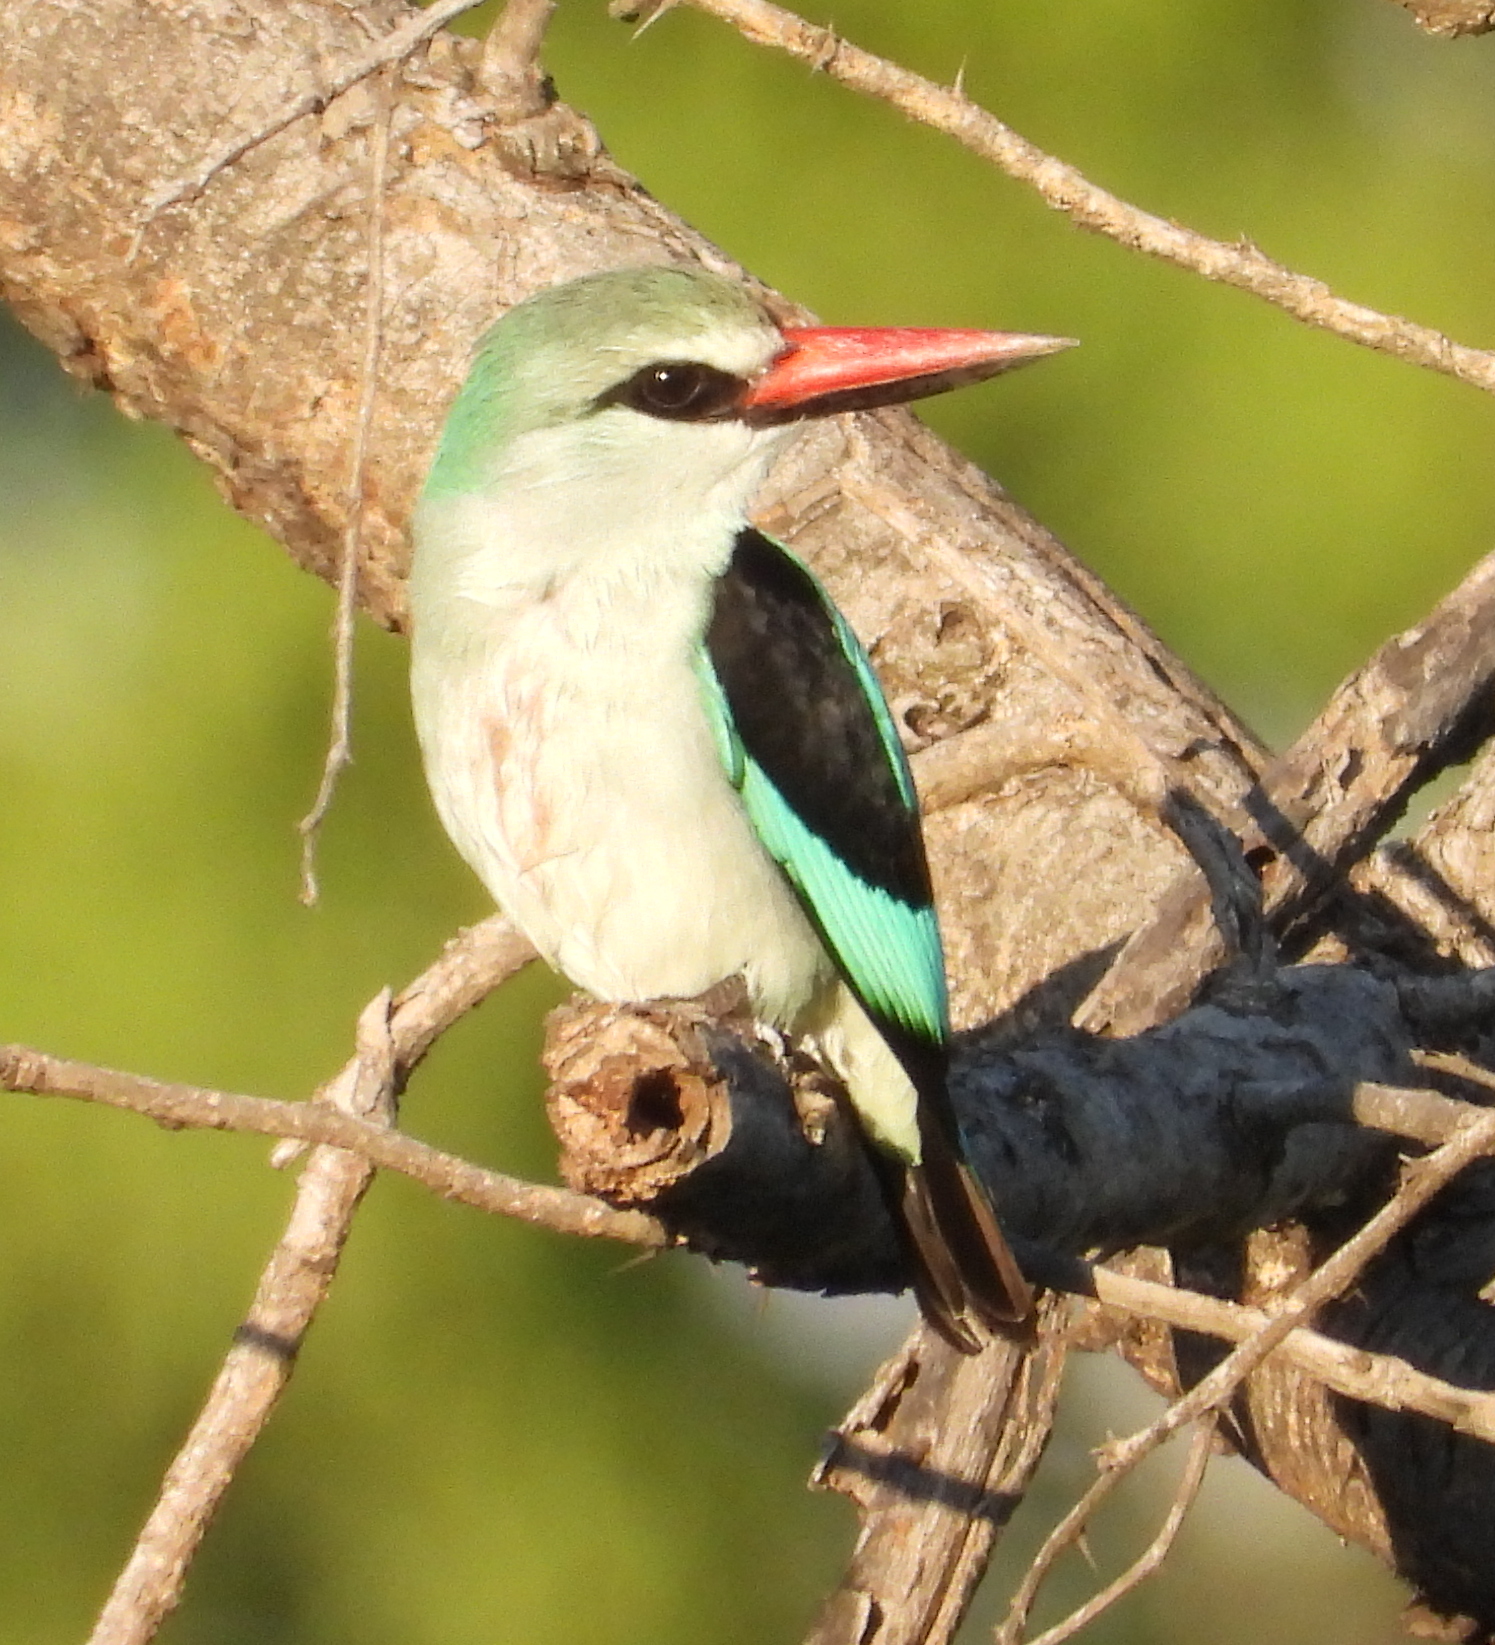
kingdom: Animalia
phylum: Chordata
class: Aves
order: Coraciiformes
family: Alcedinidae
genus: Halcyon
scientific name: Halcyon senegalensis
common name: Woodland kingfisher
